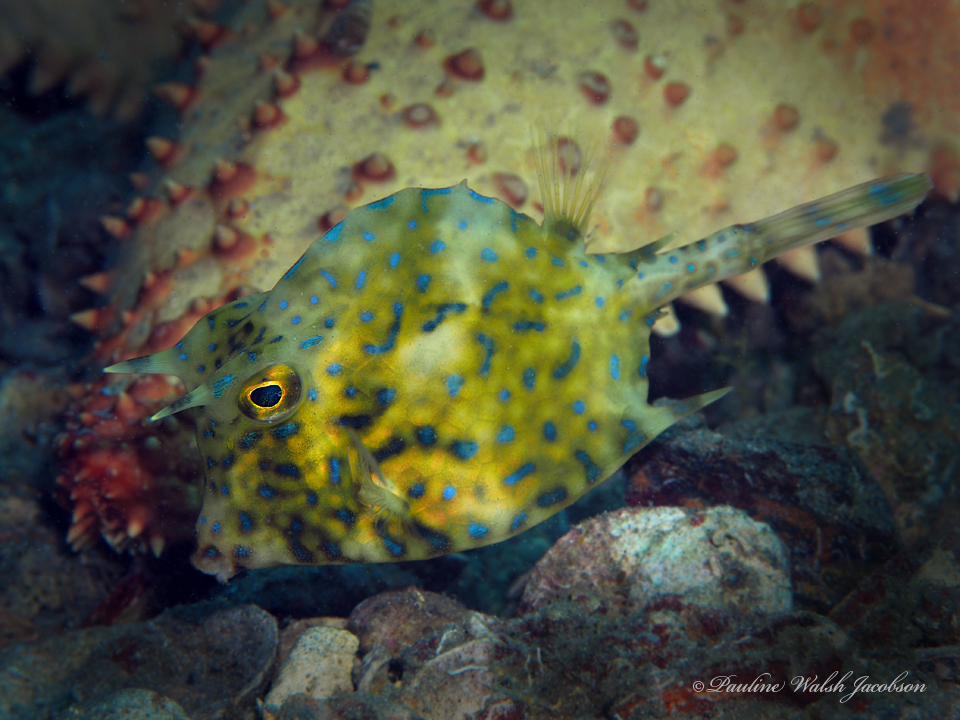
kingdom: Animalia
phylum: Chordata
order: Tetraodontiformes
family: Ostraciidae
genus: Acanthostracion
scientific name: Acanthostracion quadricornis
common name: Scrawled cowfish
